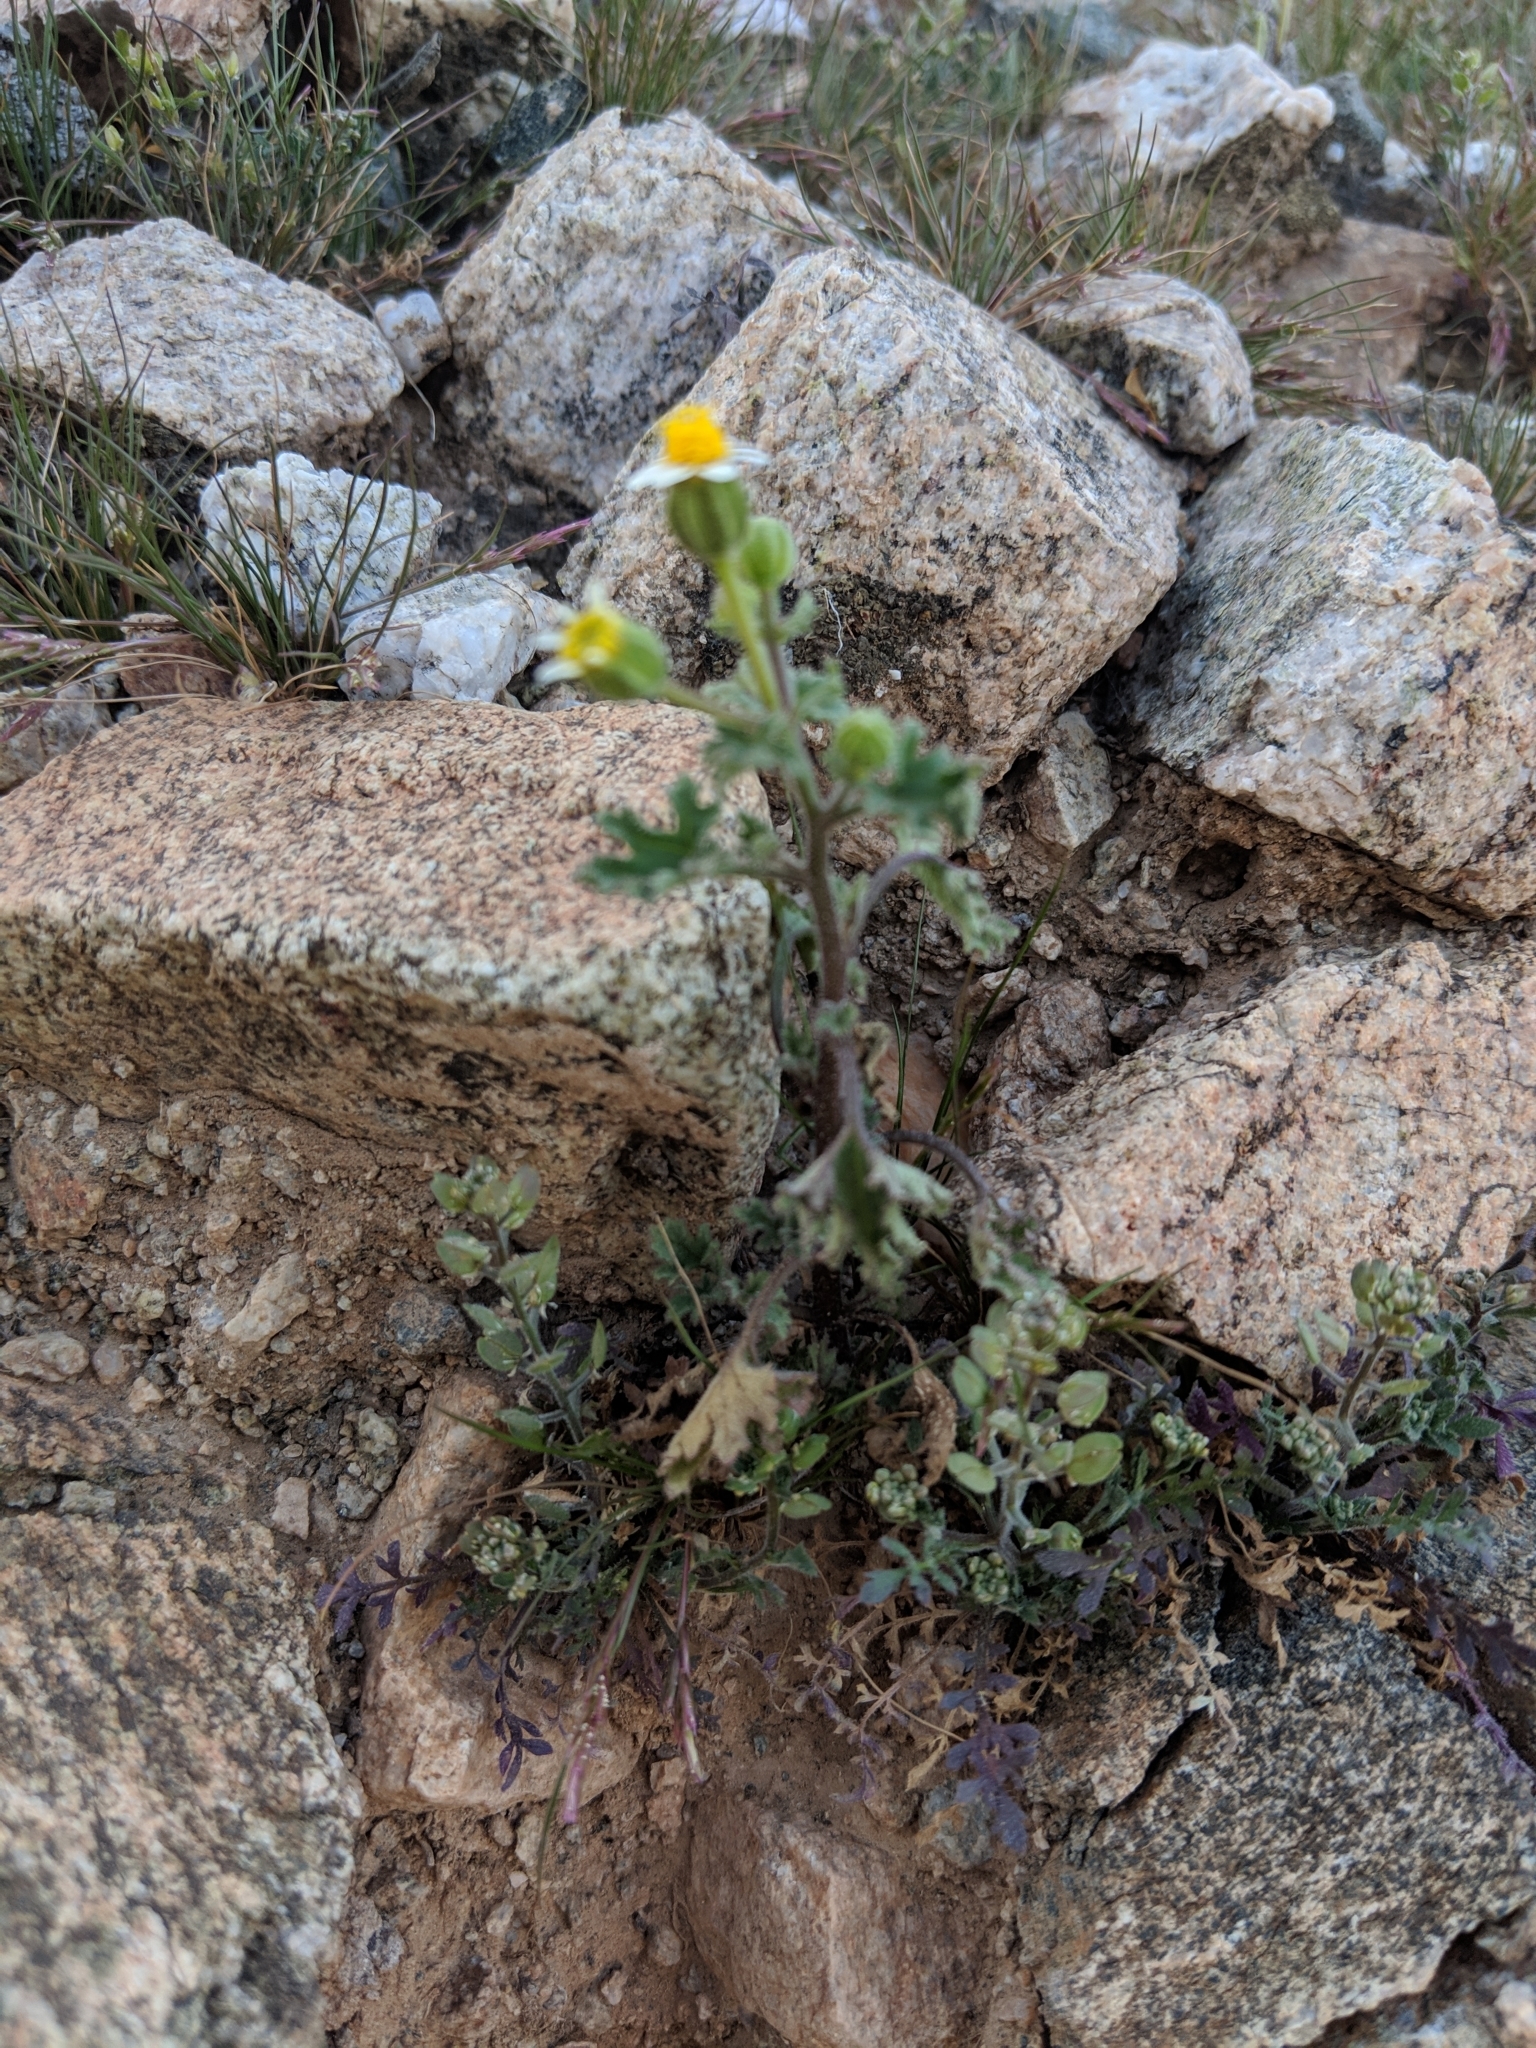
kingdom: Plantae
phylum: Tracheophyta
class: Magnoliopsida
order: Asterales
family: Asteraceae
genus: Laphamia
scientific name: Laphamia emoryi
